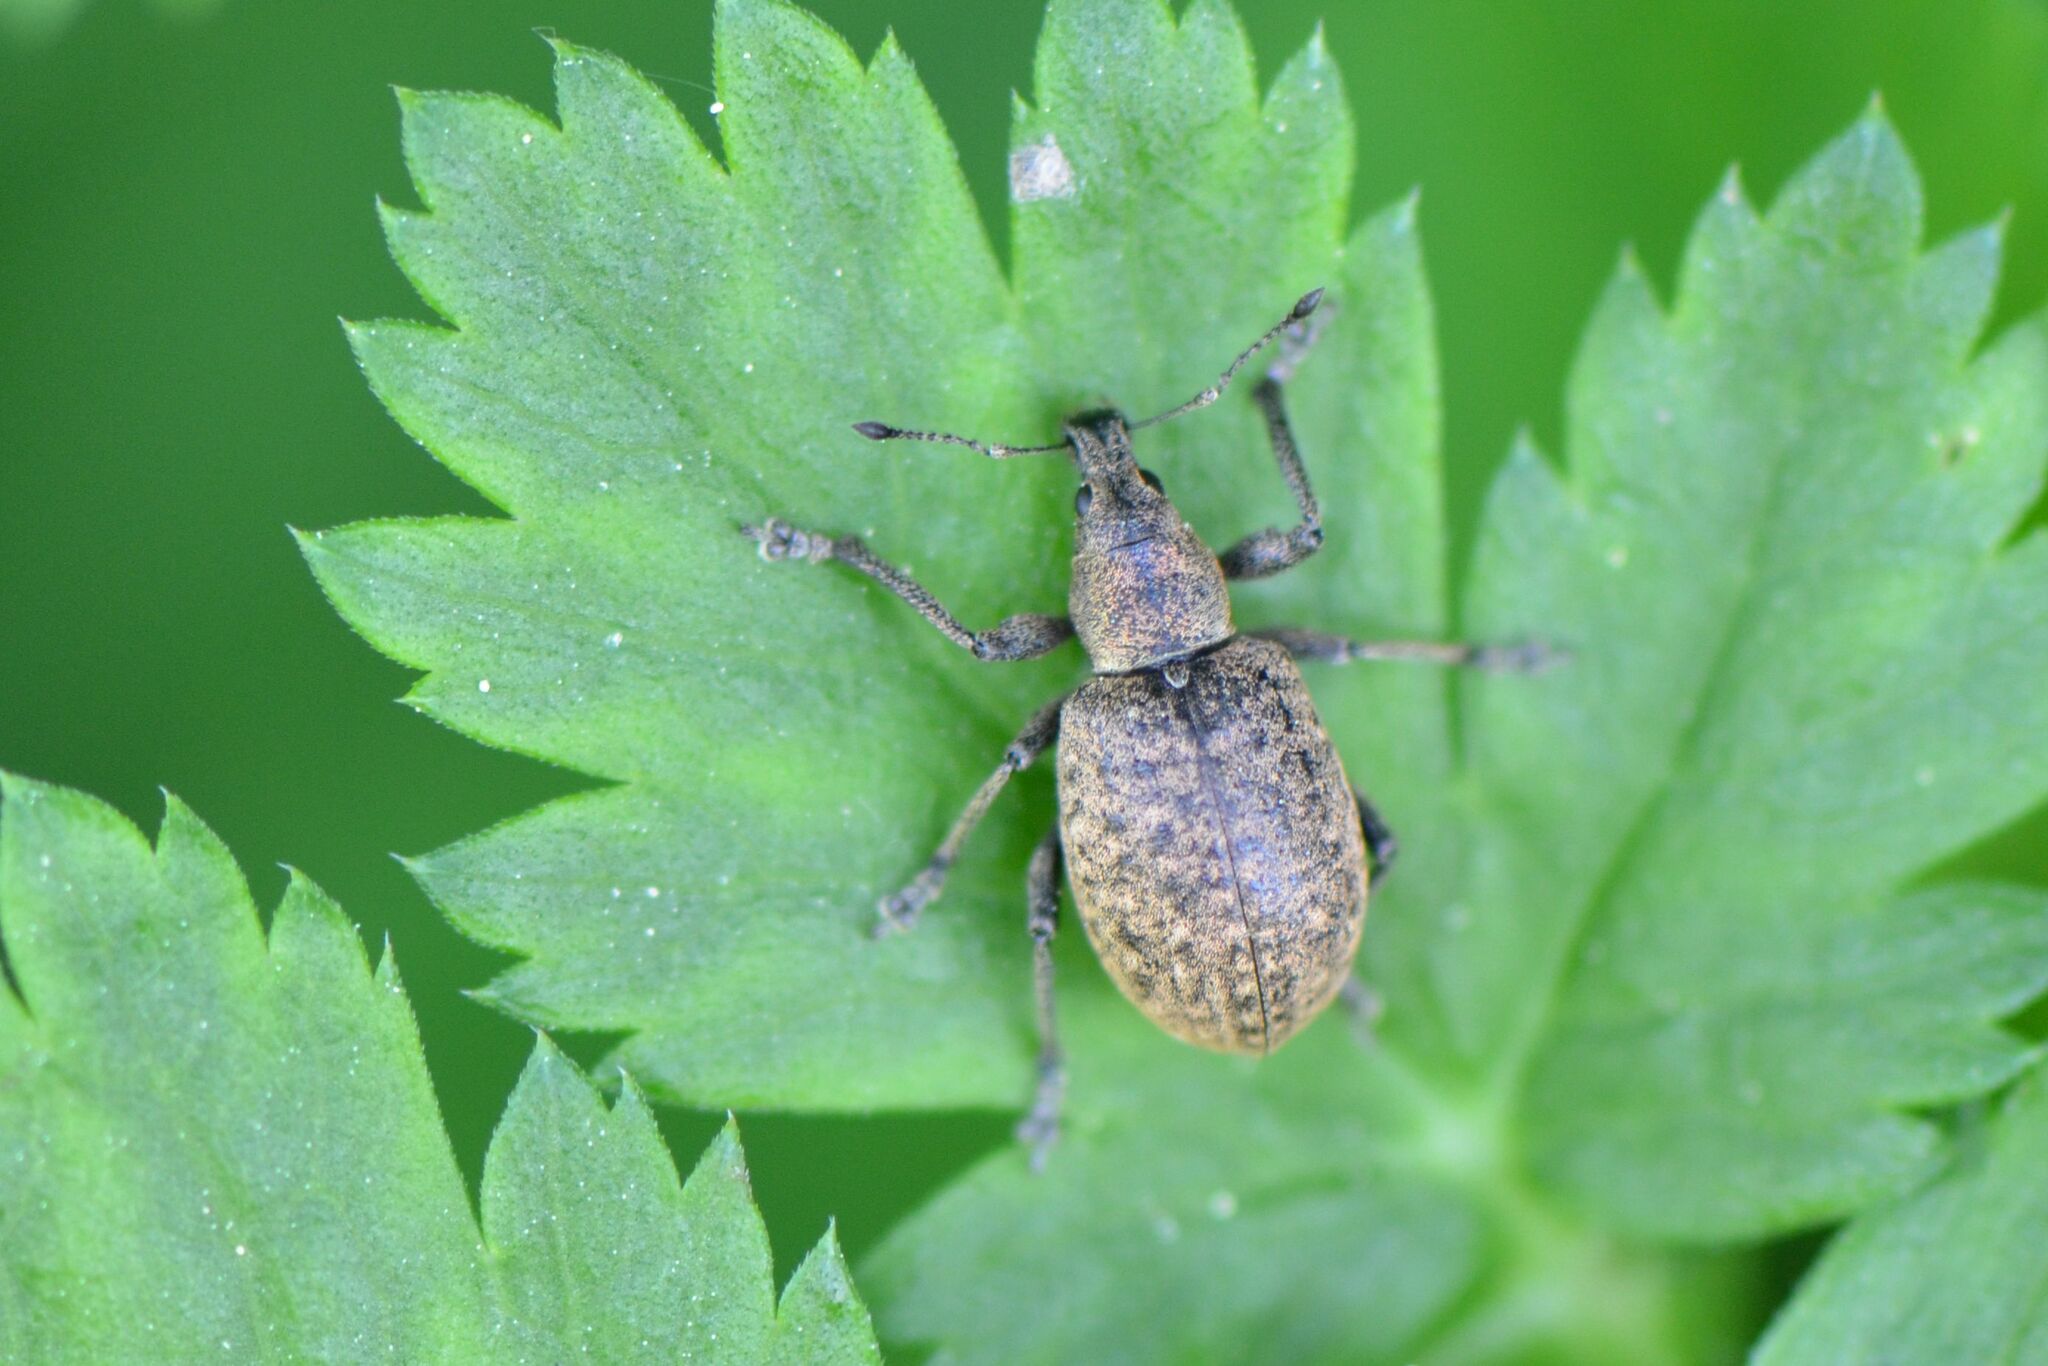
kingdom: Animalia
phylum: Arthropoda
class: Insecta
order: Coleoptera
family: Curculionidae
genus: Liophloeus
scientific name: Liophloeus tessulatus
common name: Weevil
